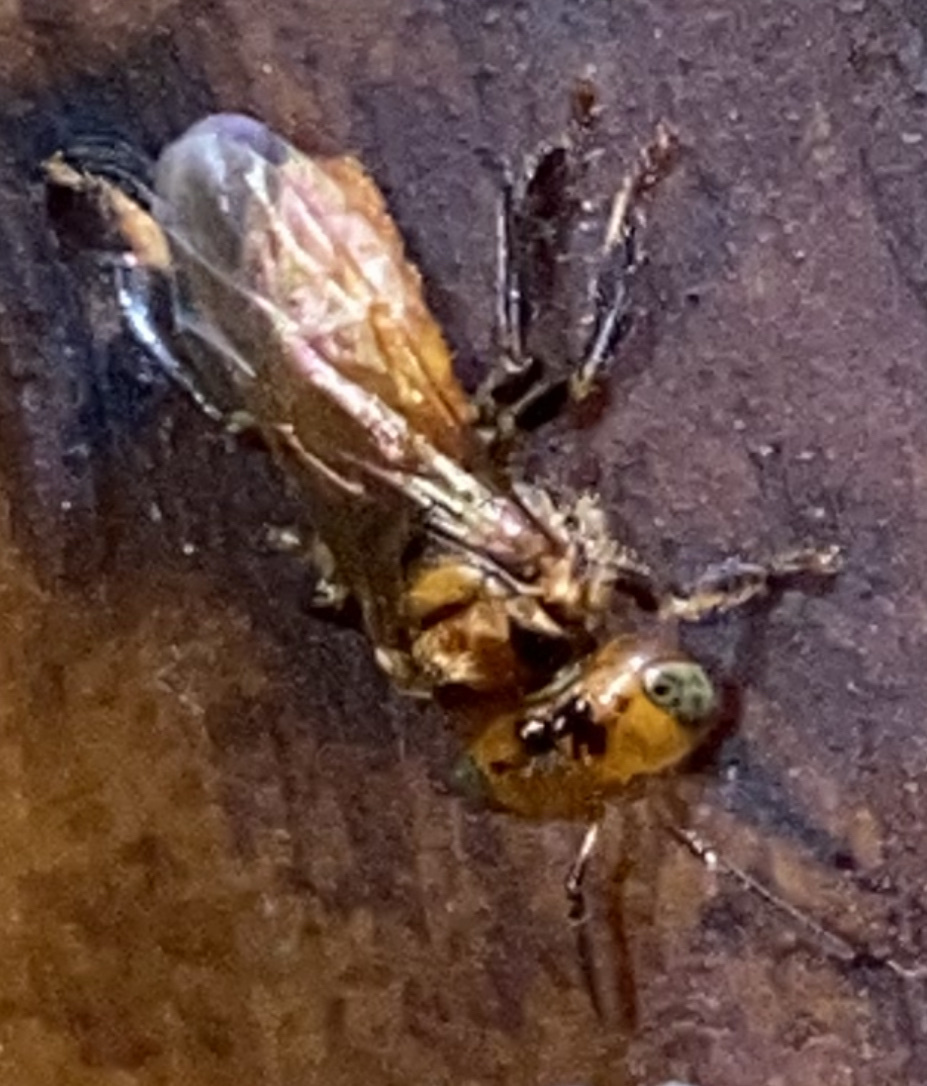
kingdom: Animalia
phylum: Arthropoda
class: Insecta
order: Hymenoptera
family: Apidae
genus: Oxytrigona
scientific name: Oxytrigona mediorufa
